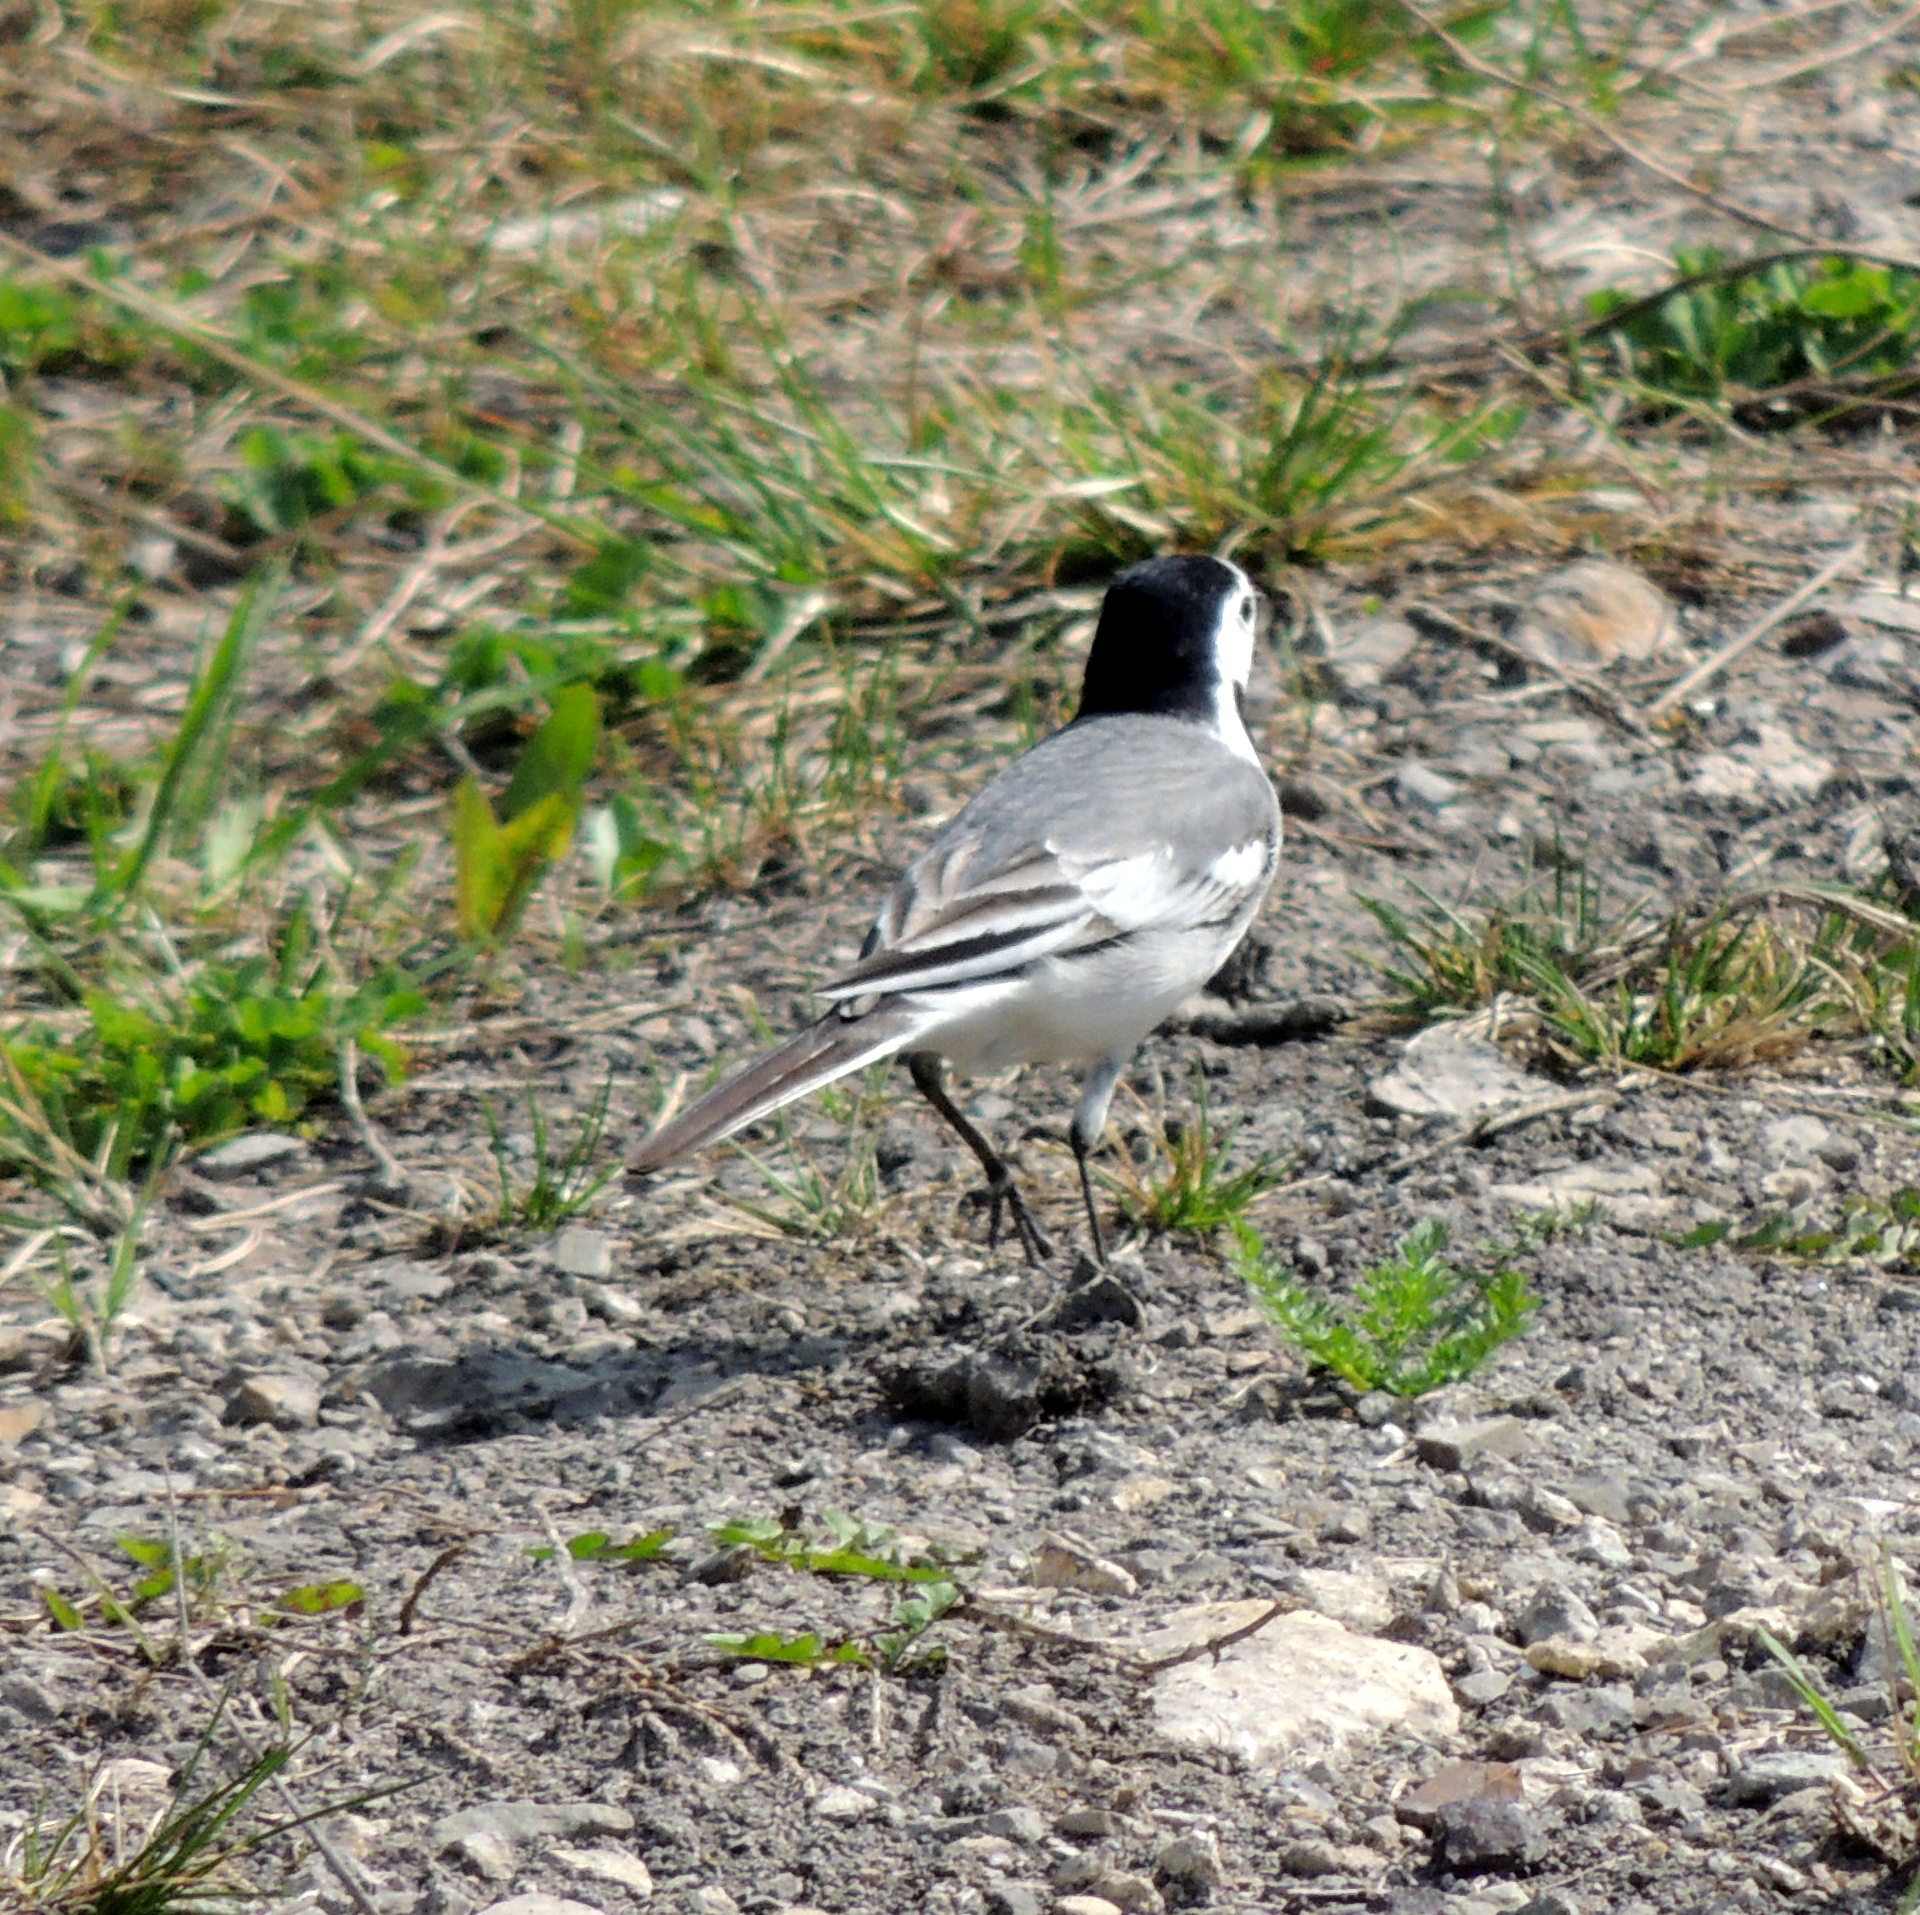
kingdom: Animalia
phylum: Chordata
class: Aves
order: Passeriformes
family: Motacillidae
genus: Motacilla
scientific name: Motacilla alba
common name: White wagtail
